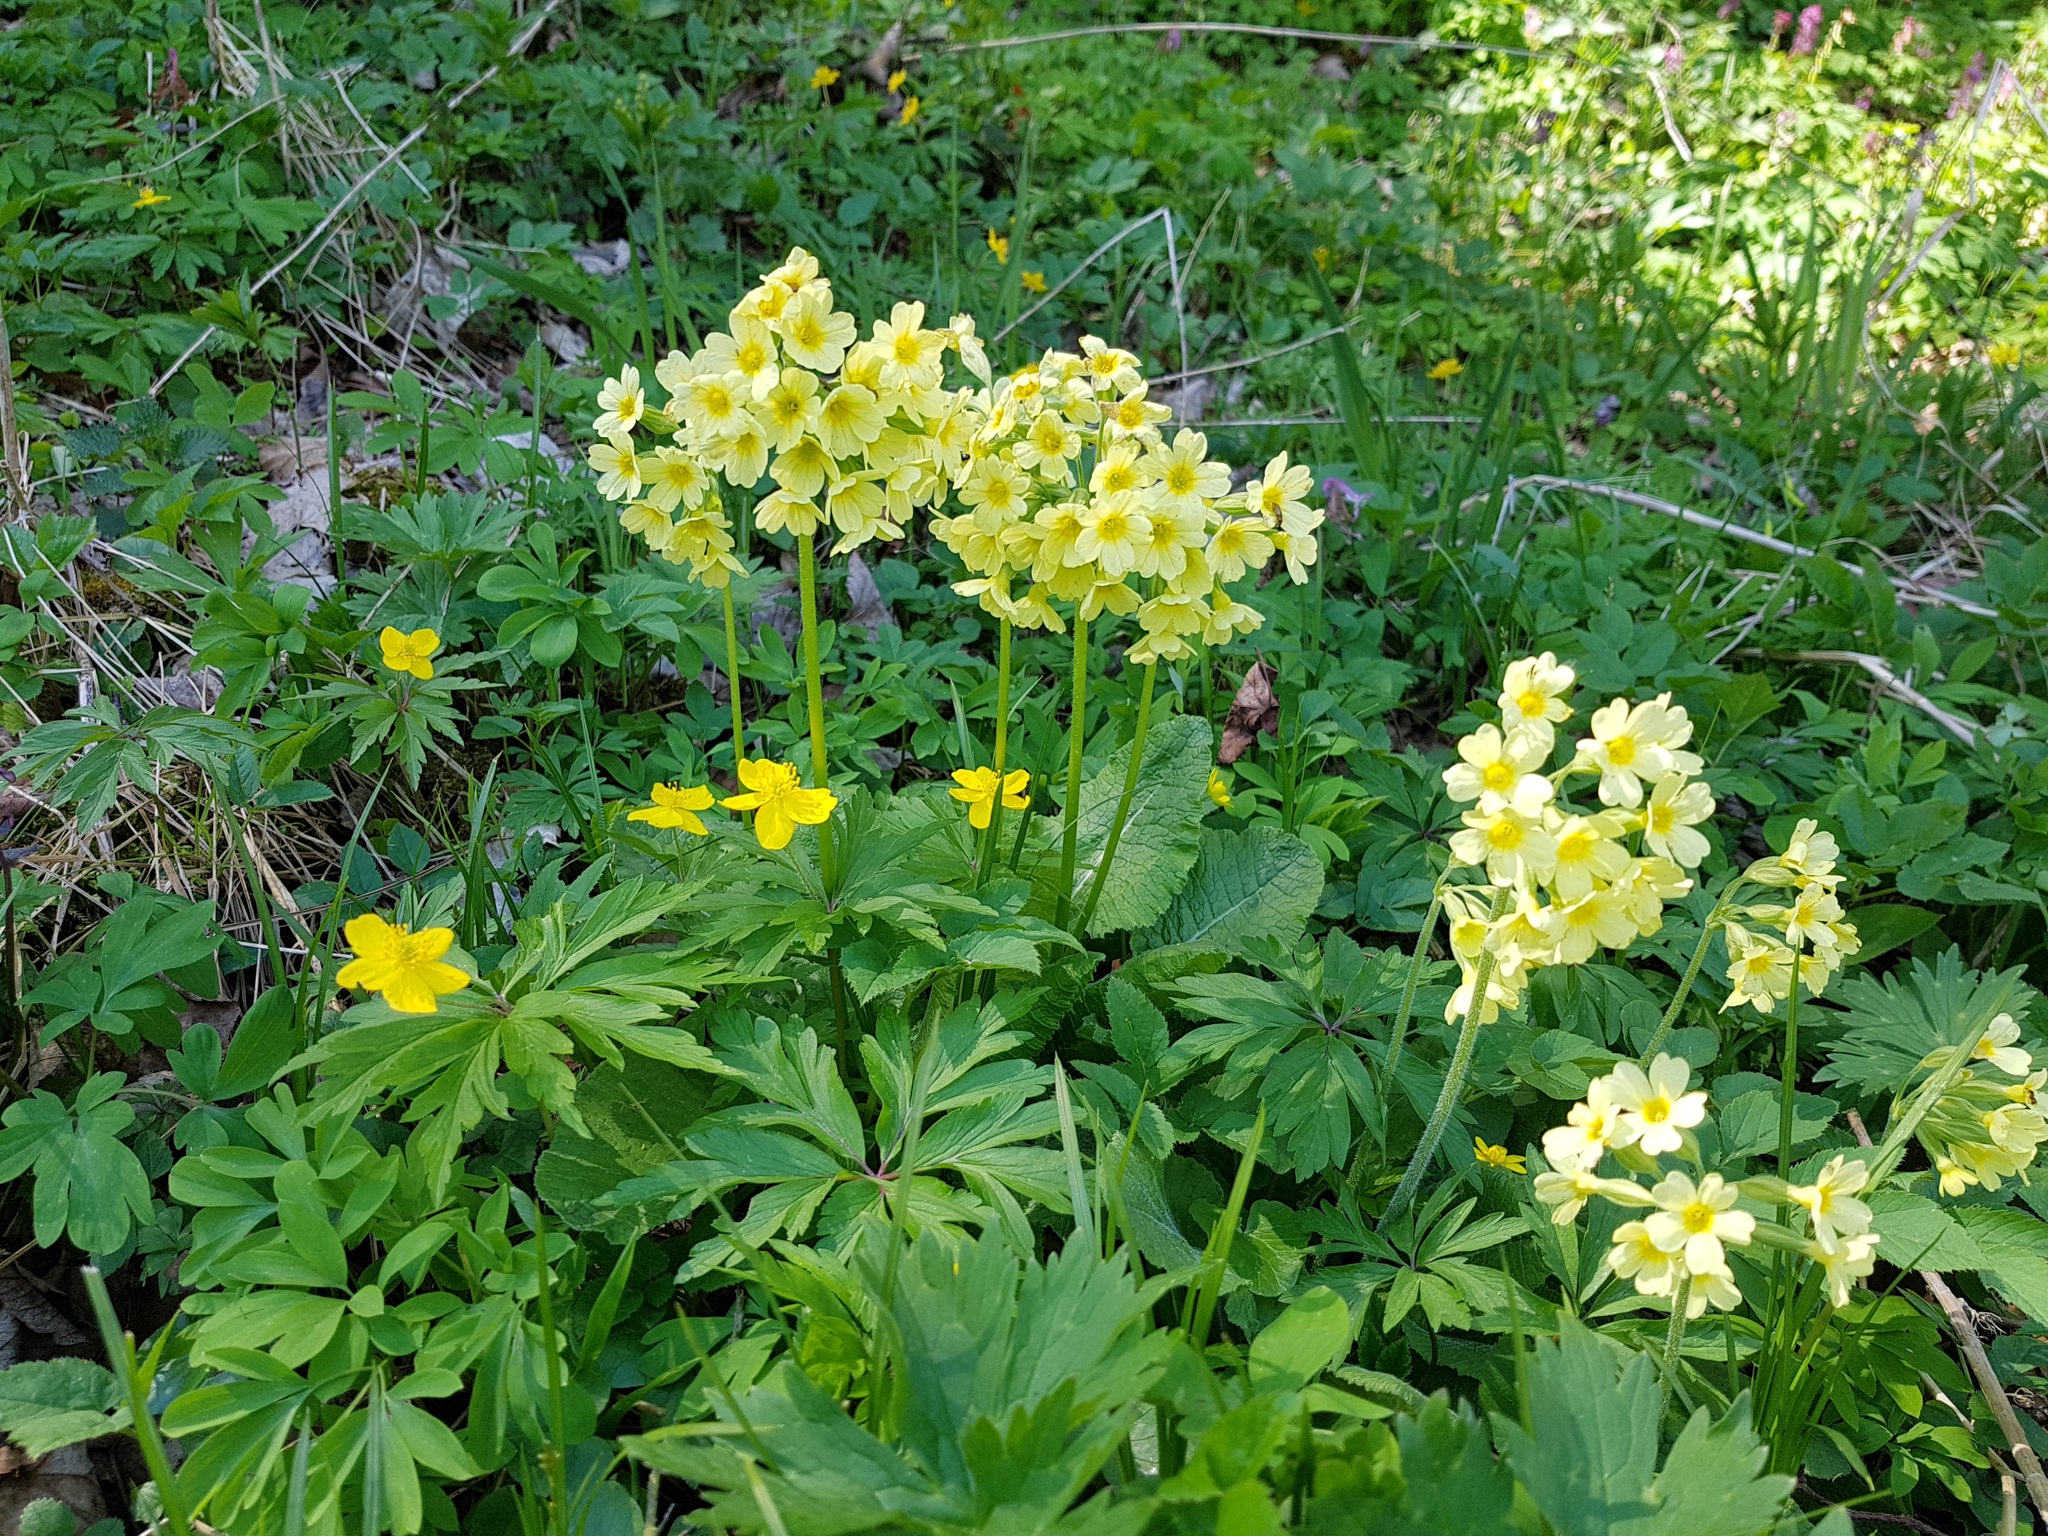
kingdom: Plantae
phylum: Tracheophyta
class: Magnoliopsida
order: Ericales
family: Primulaceae
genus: Primula
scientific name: Primula elatior
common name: Oxlip
